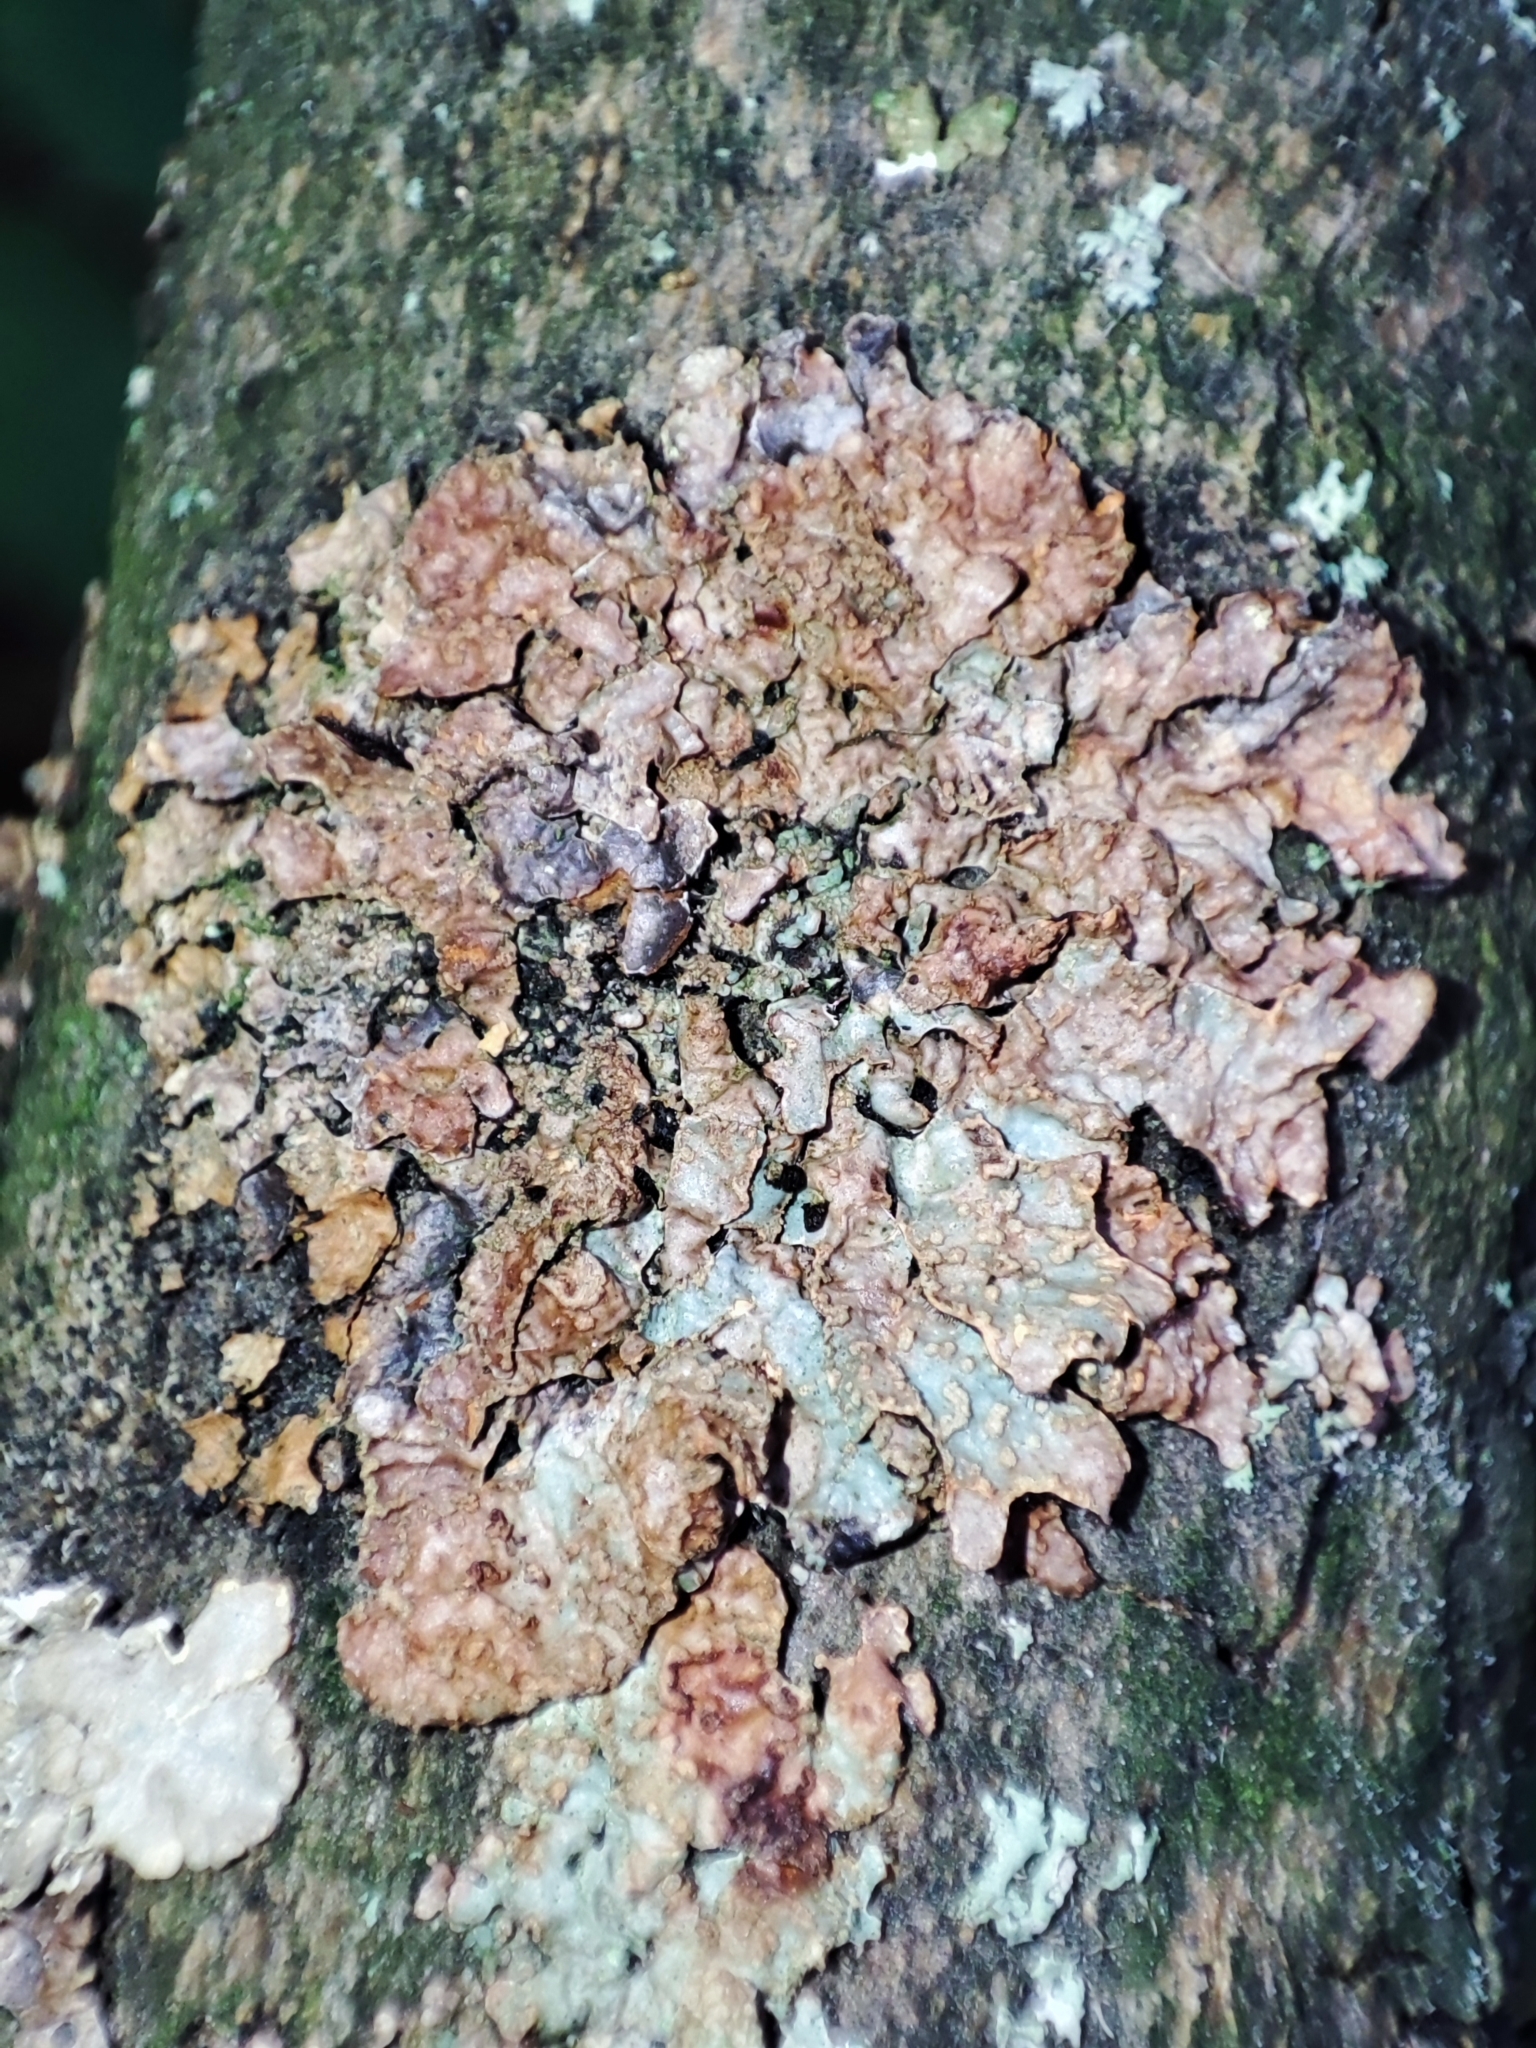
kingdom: Fungi
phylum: Ascomycota
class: Lecanoromycetes
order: Lecanorales
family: Parmeliaceae
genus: Parmelia
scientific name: Parmelia sulcata
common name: Netted shield lichen
